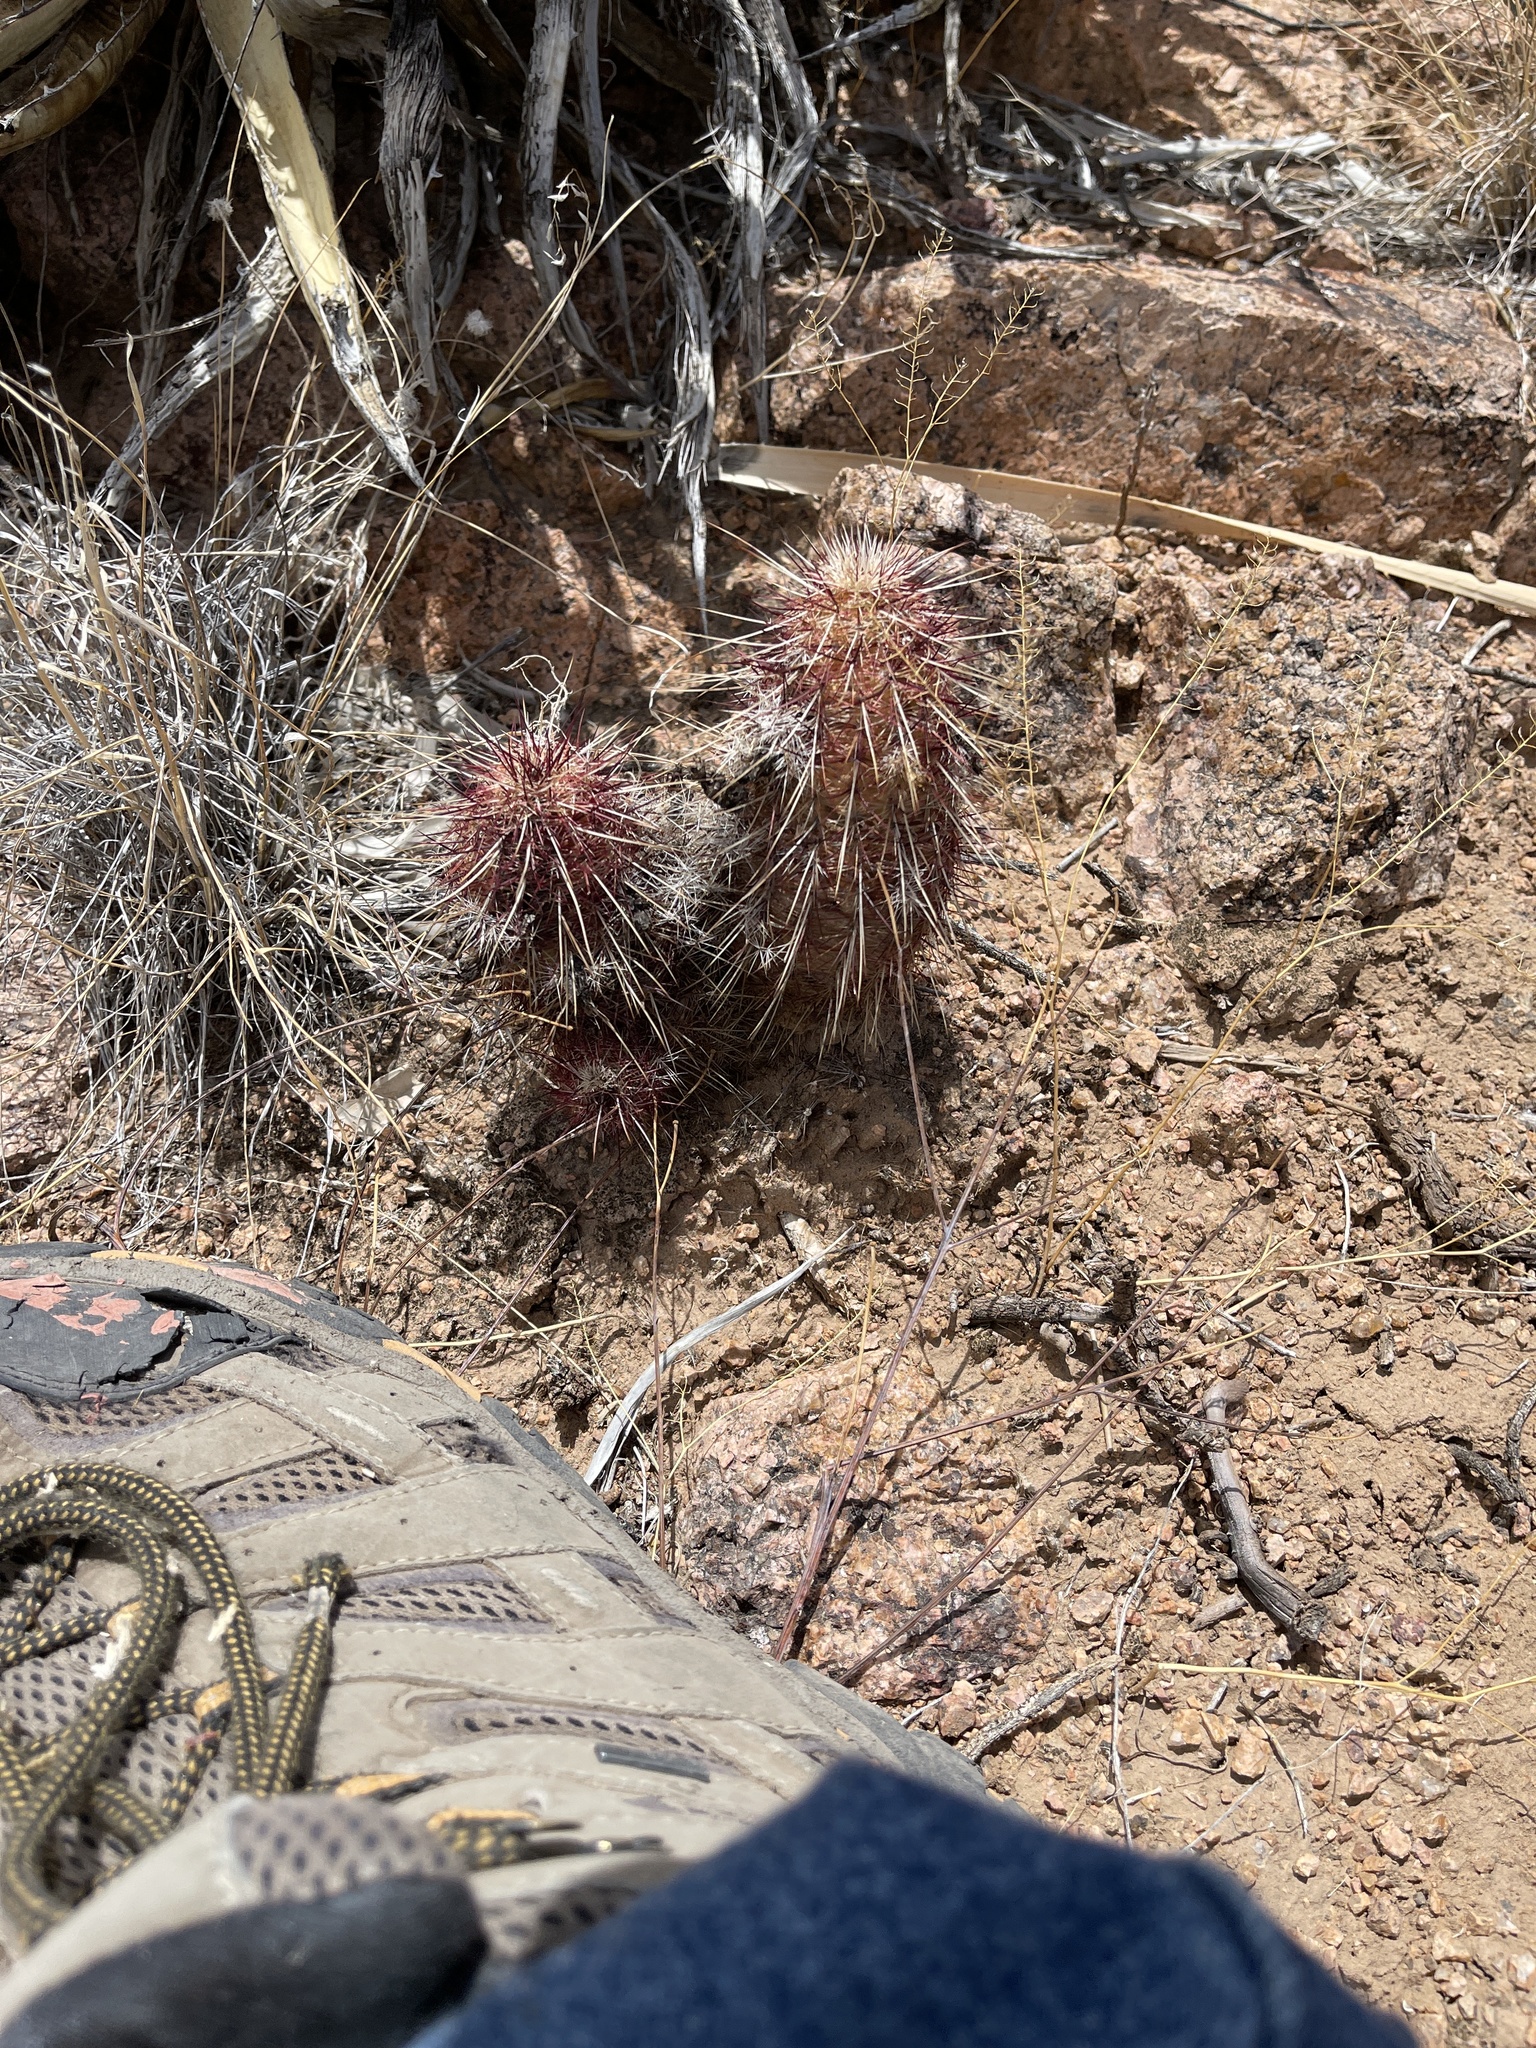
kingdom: Plantae
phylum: Tracheophyta
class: Magnoliopsida
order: Caryophyllales
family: Cactaceae
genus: Echinocereus
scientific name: Echinocereus viridiflorus
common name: Nylon hedgehog cactus
